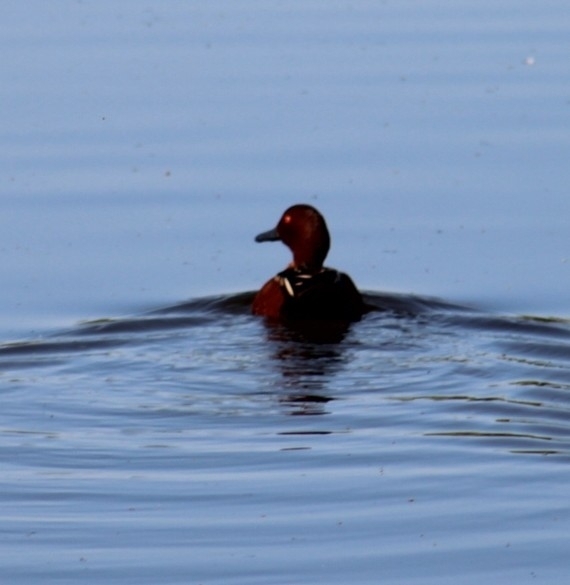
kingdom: Animalia
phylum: Chordata
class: Aves
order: Anseriformes
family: Anatidae
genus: Spatula
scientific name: Spatula cyanoptera
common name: Cinnamon teal
